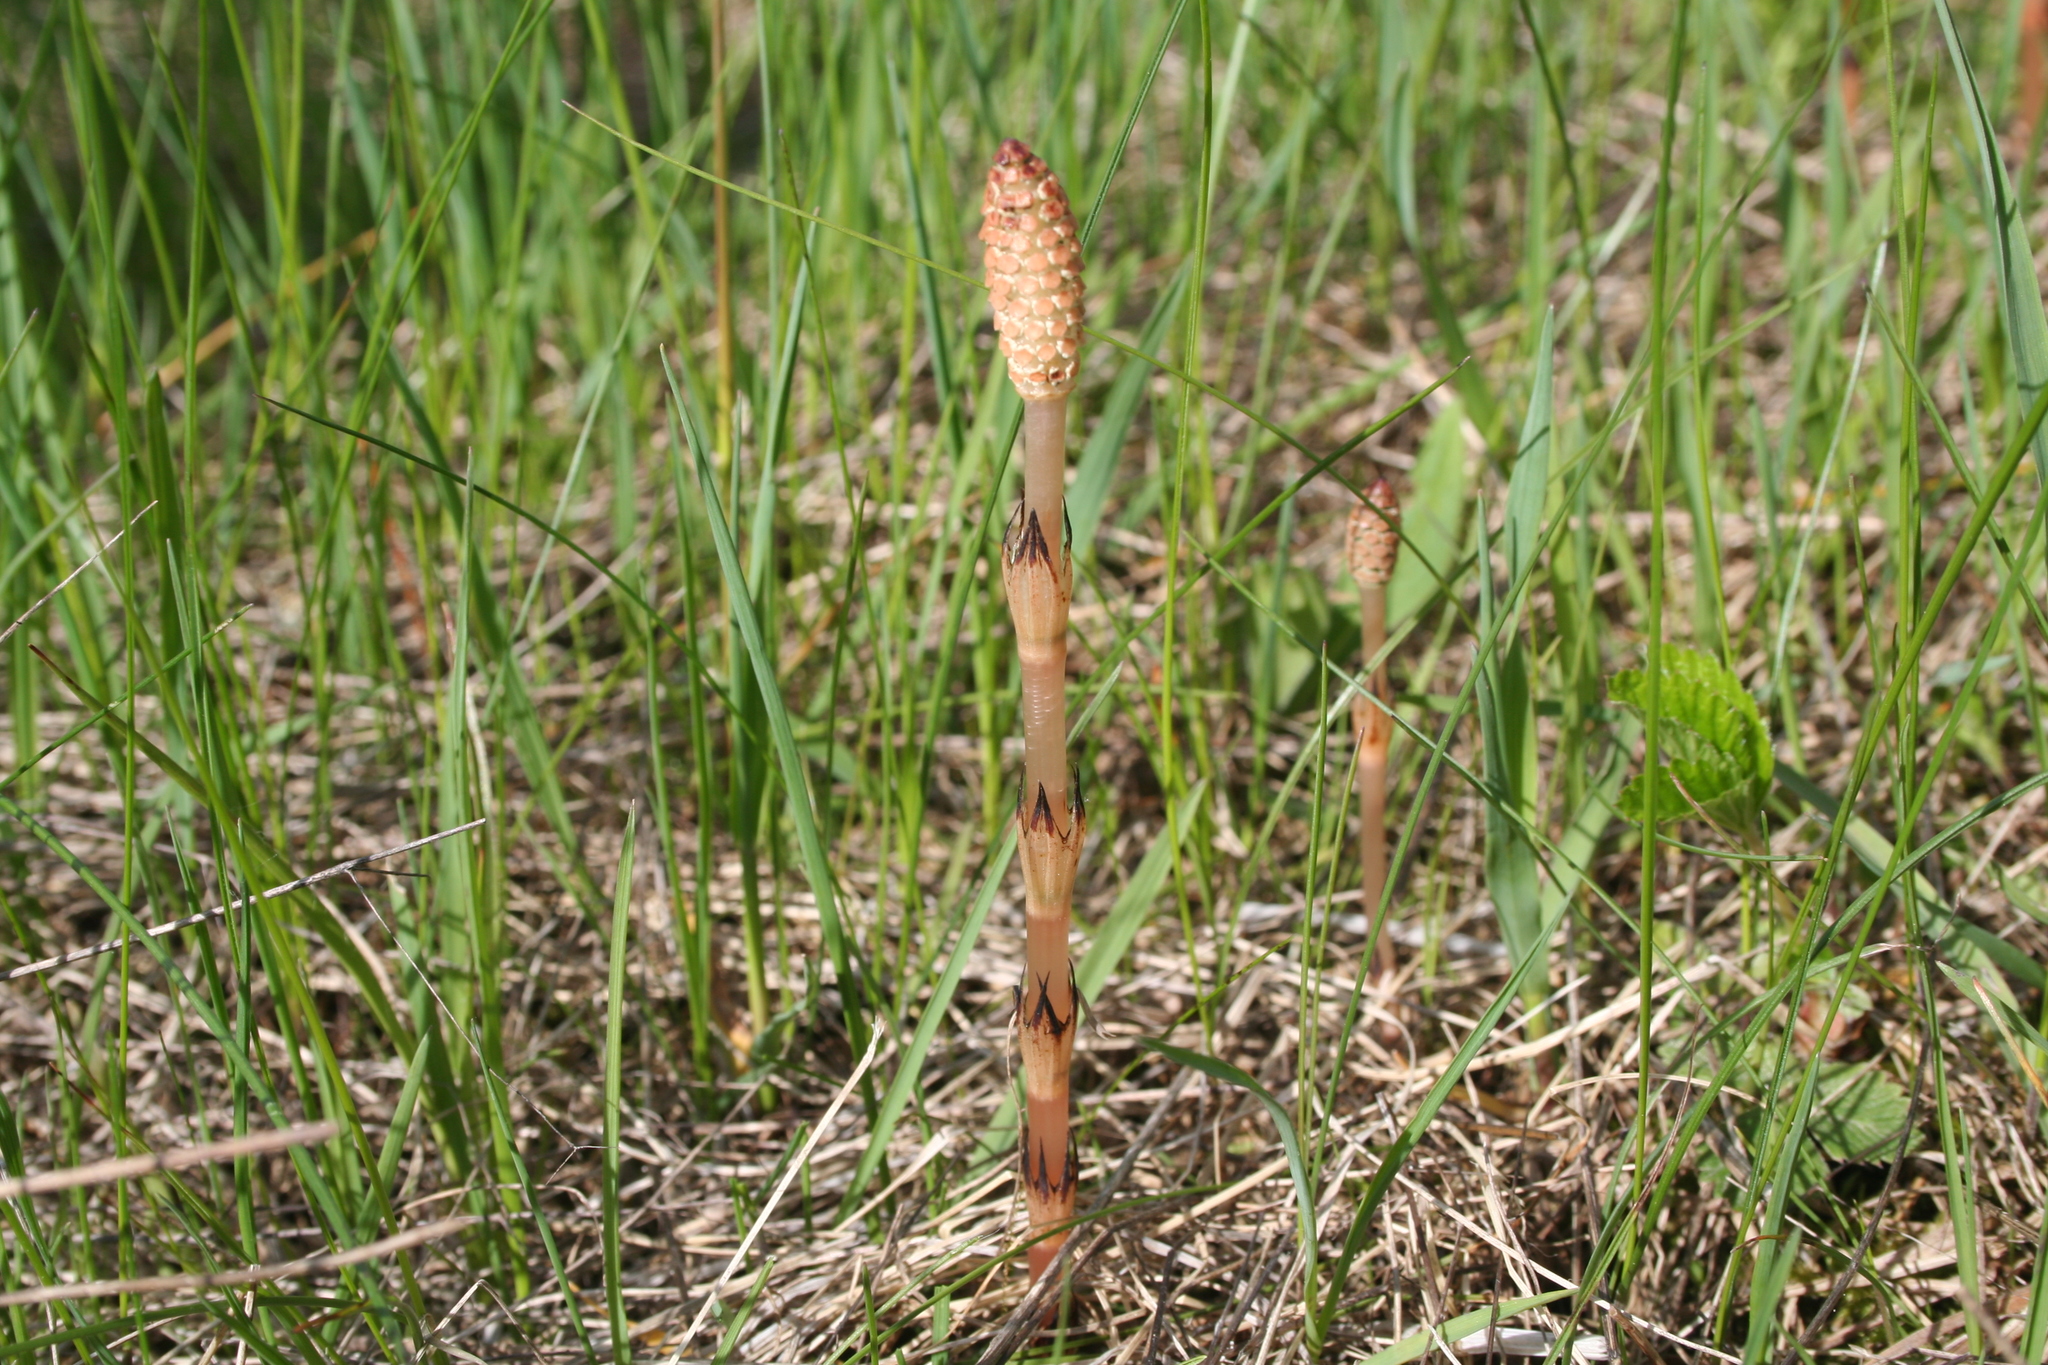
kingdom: Plantae
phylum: Tracheophyta
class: Polypodiopsida
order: Equisetales
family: Equisetaceae
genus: Equisetum
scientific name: Equisetum arvense
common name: Field horsetail
